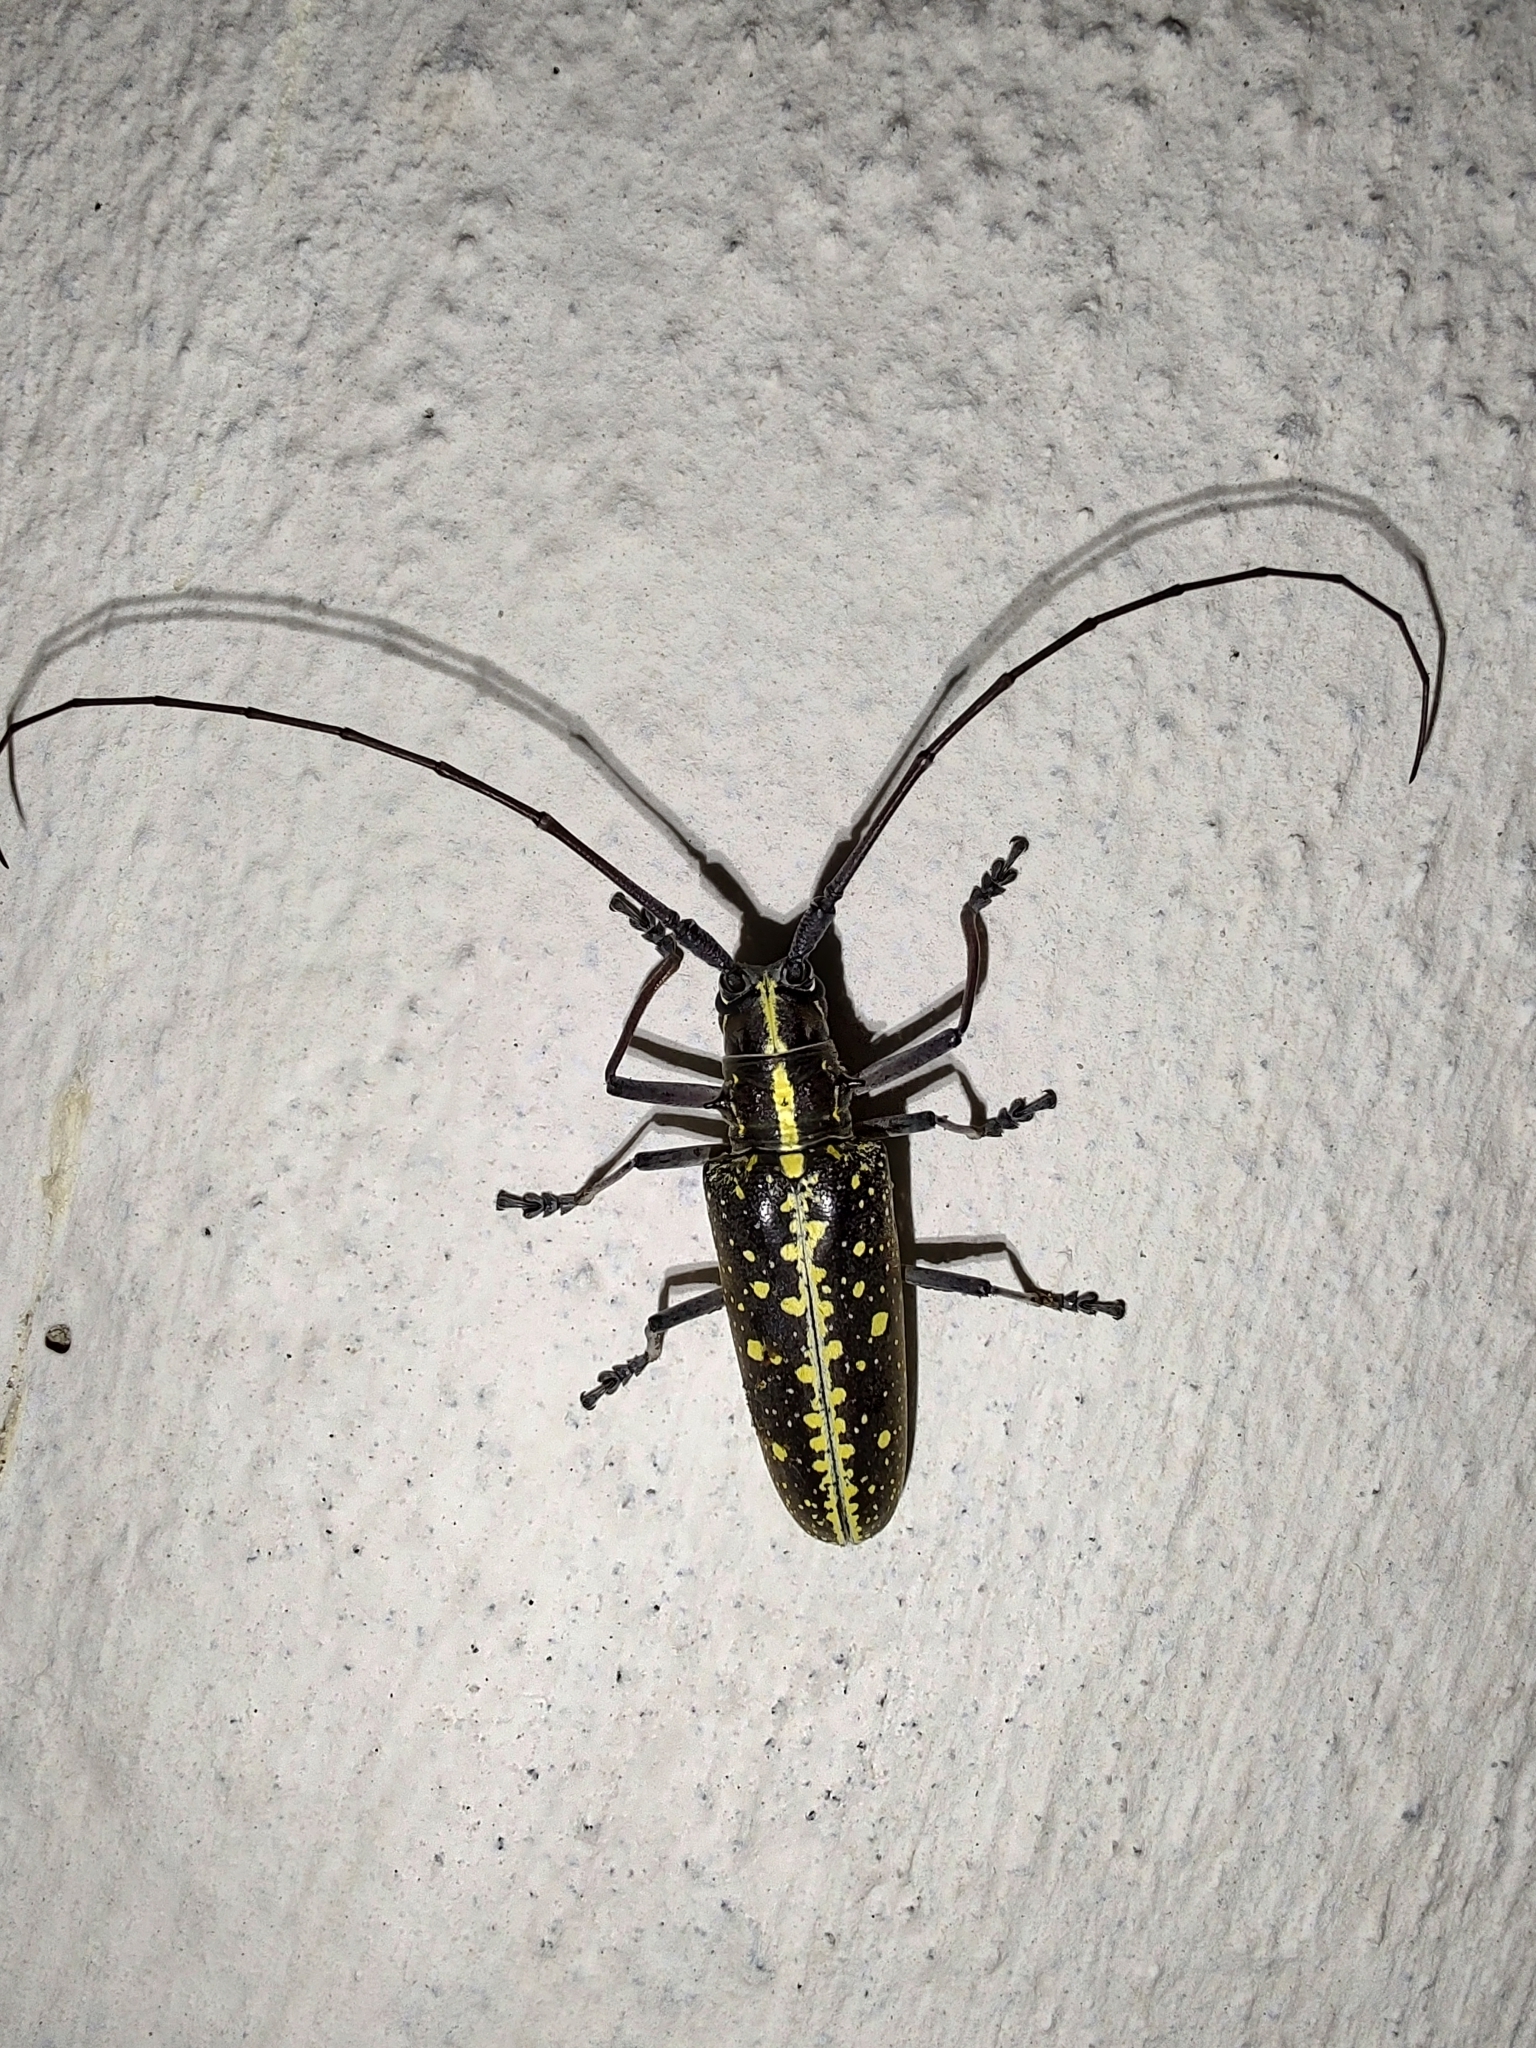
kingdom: Animalia
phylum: Arthropoda
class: Insecta
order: Coleoptera
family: Cerambycidae
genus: Taeniotes
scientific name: Taeniotes amazonum
